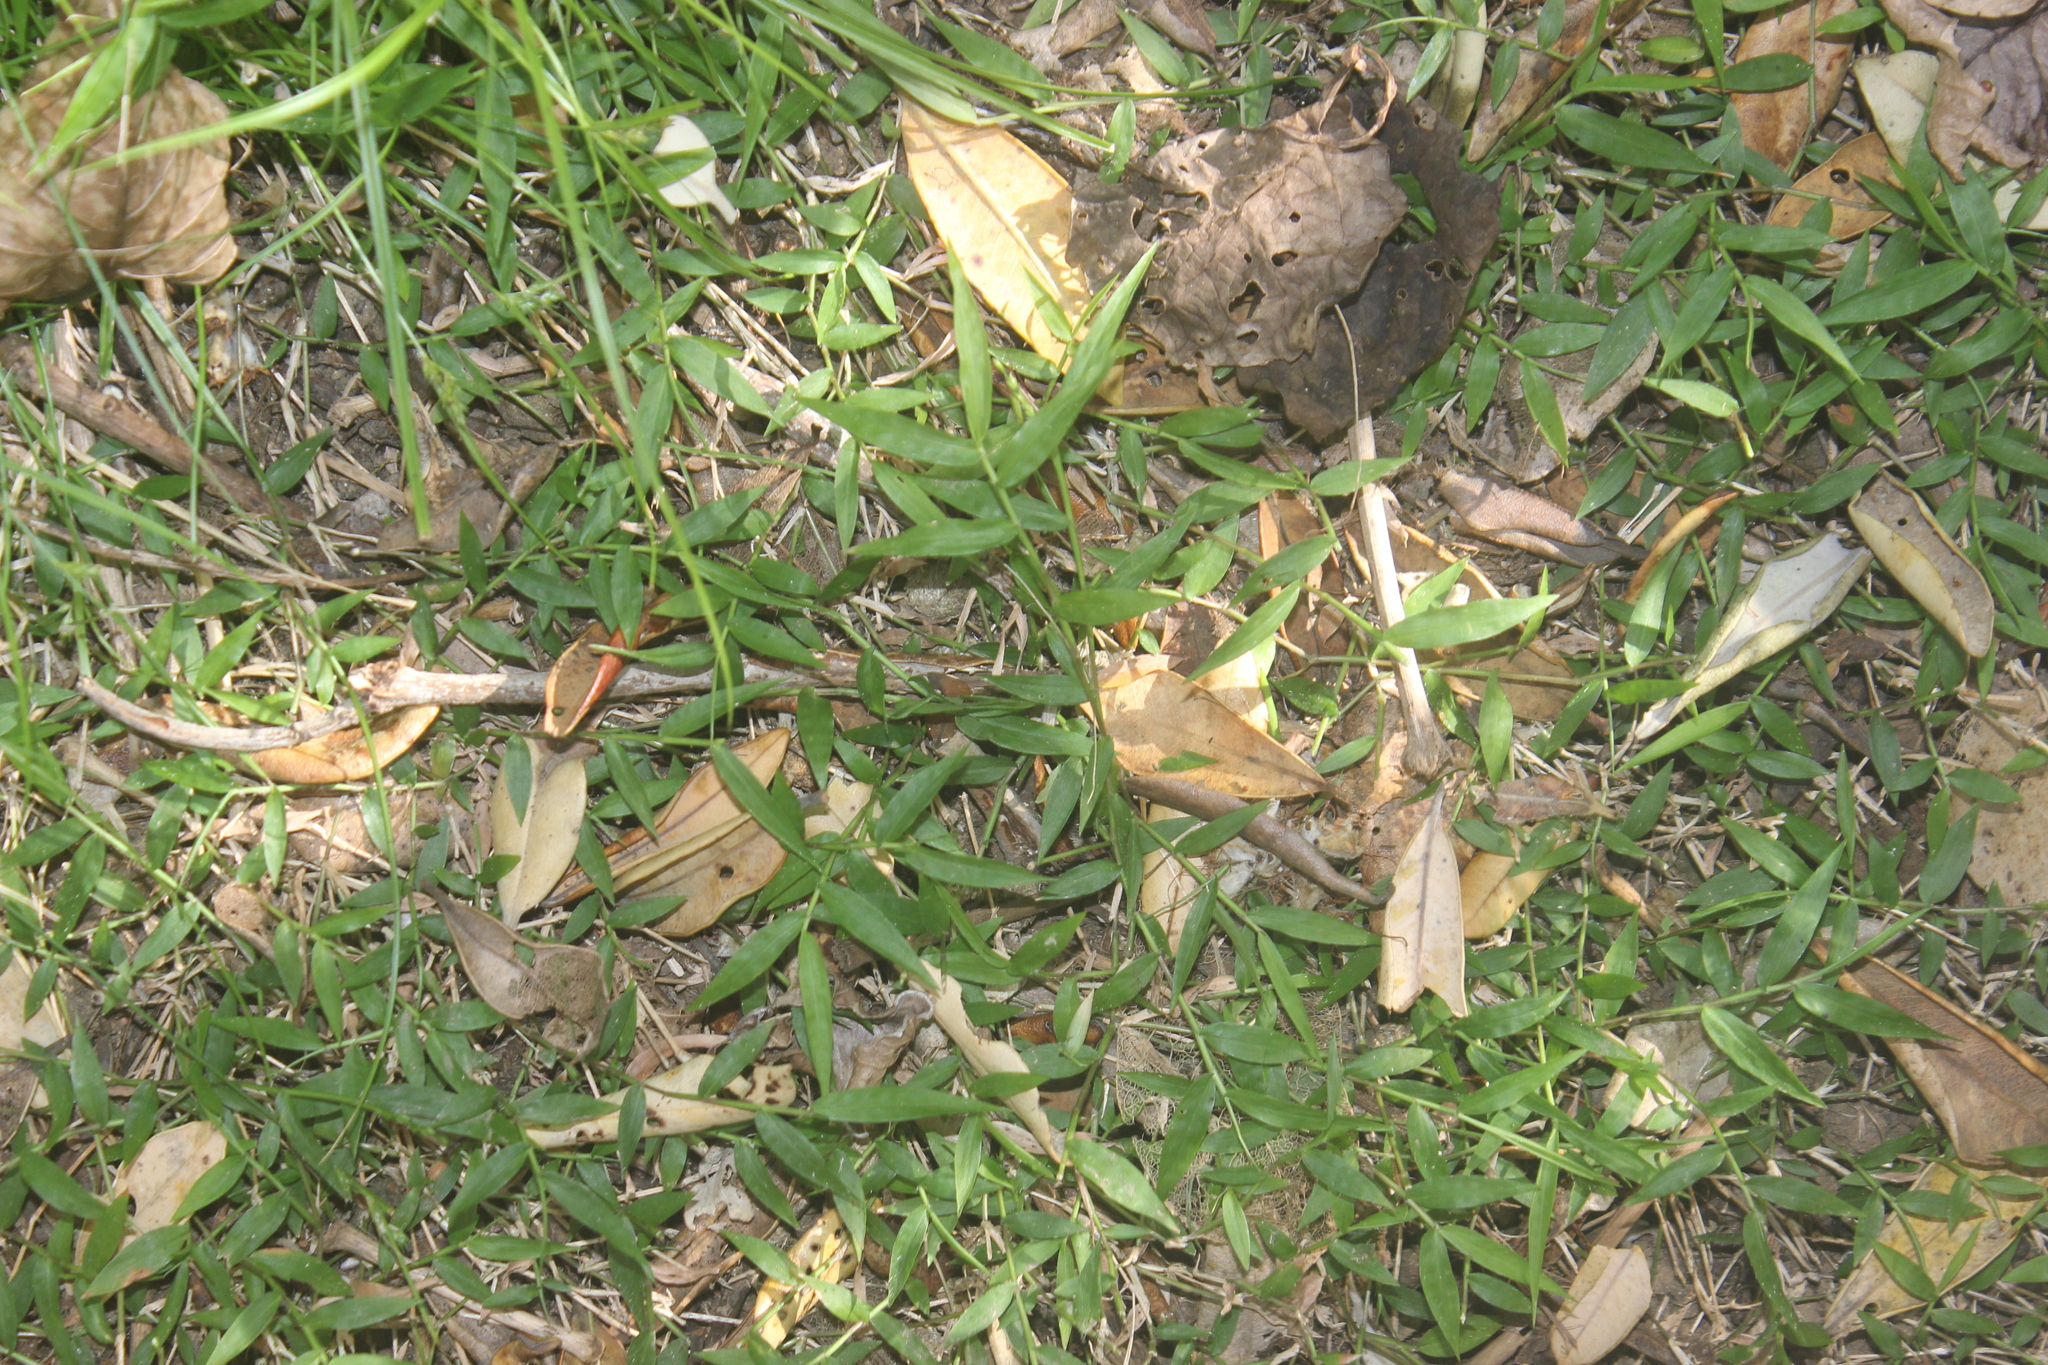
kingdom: Plantae
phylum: Tracheophyta
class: Liliopsida
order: Poales
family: Poaceae
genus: Oplismenus
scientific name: Oplismenus hirtellus
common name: Basketgrass
